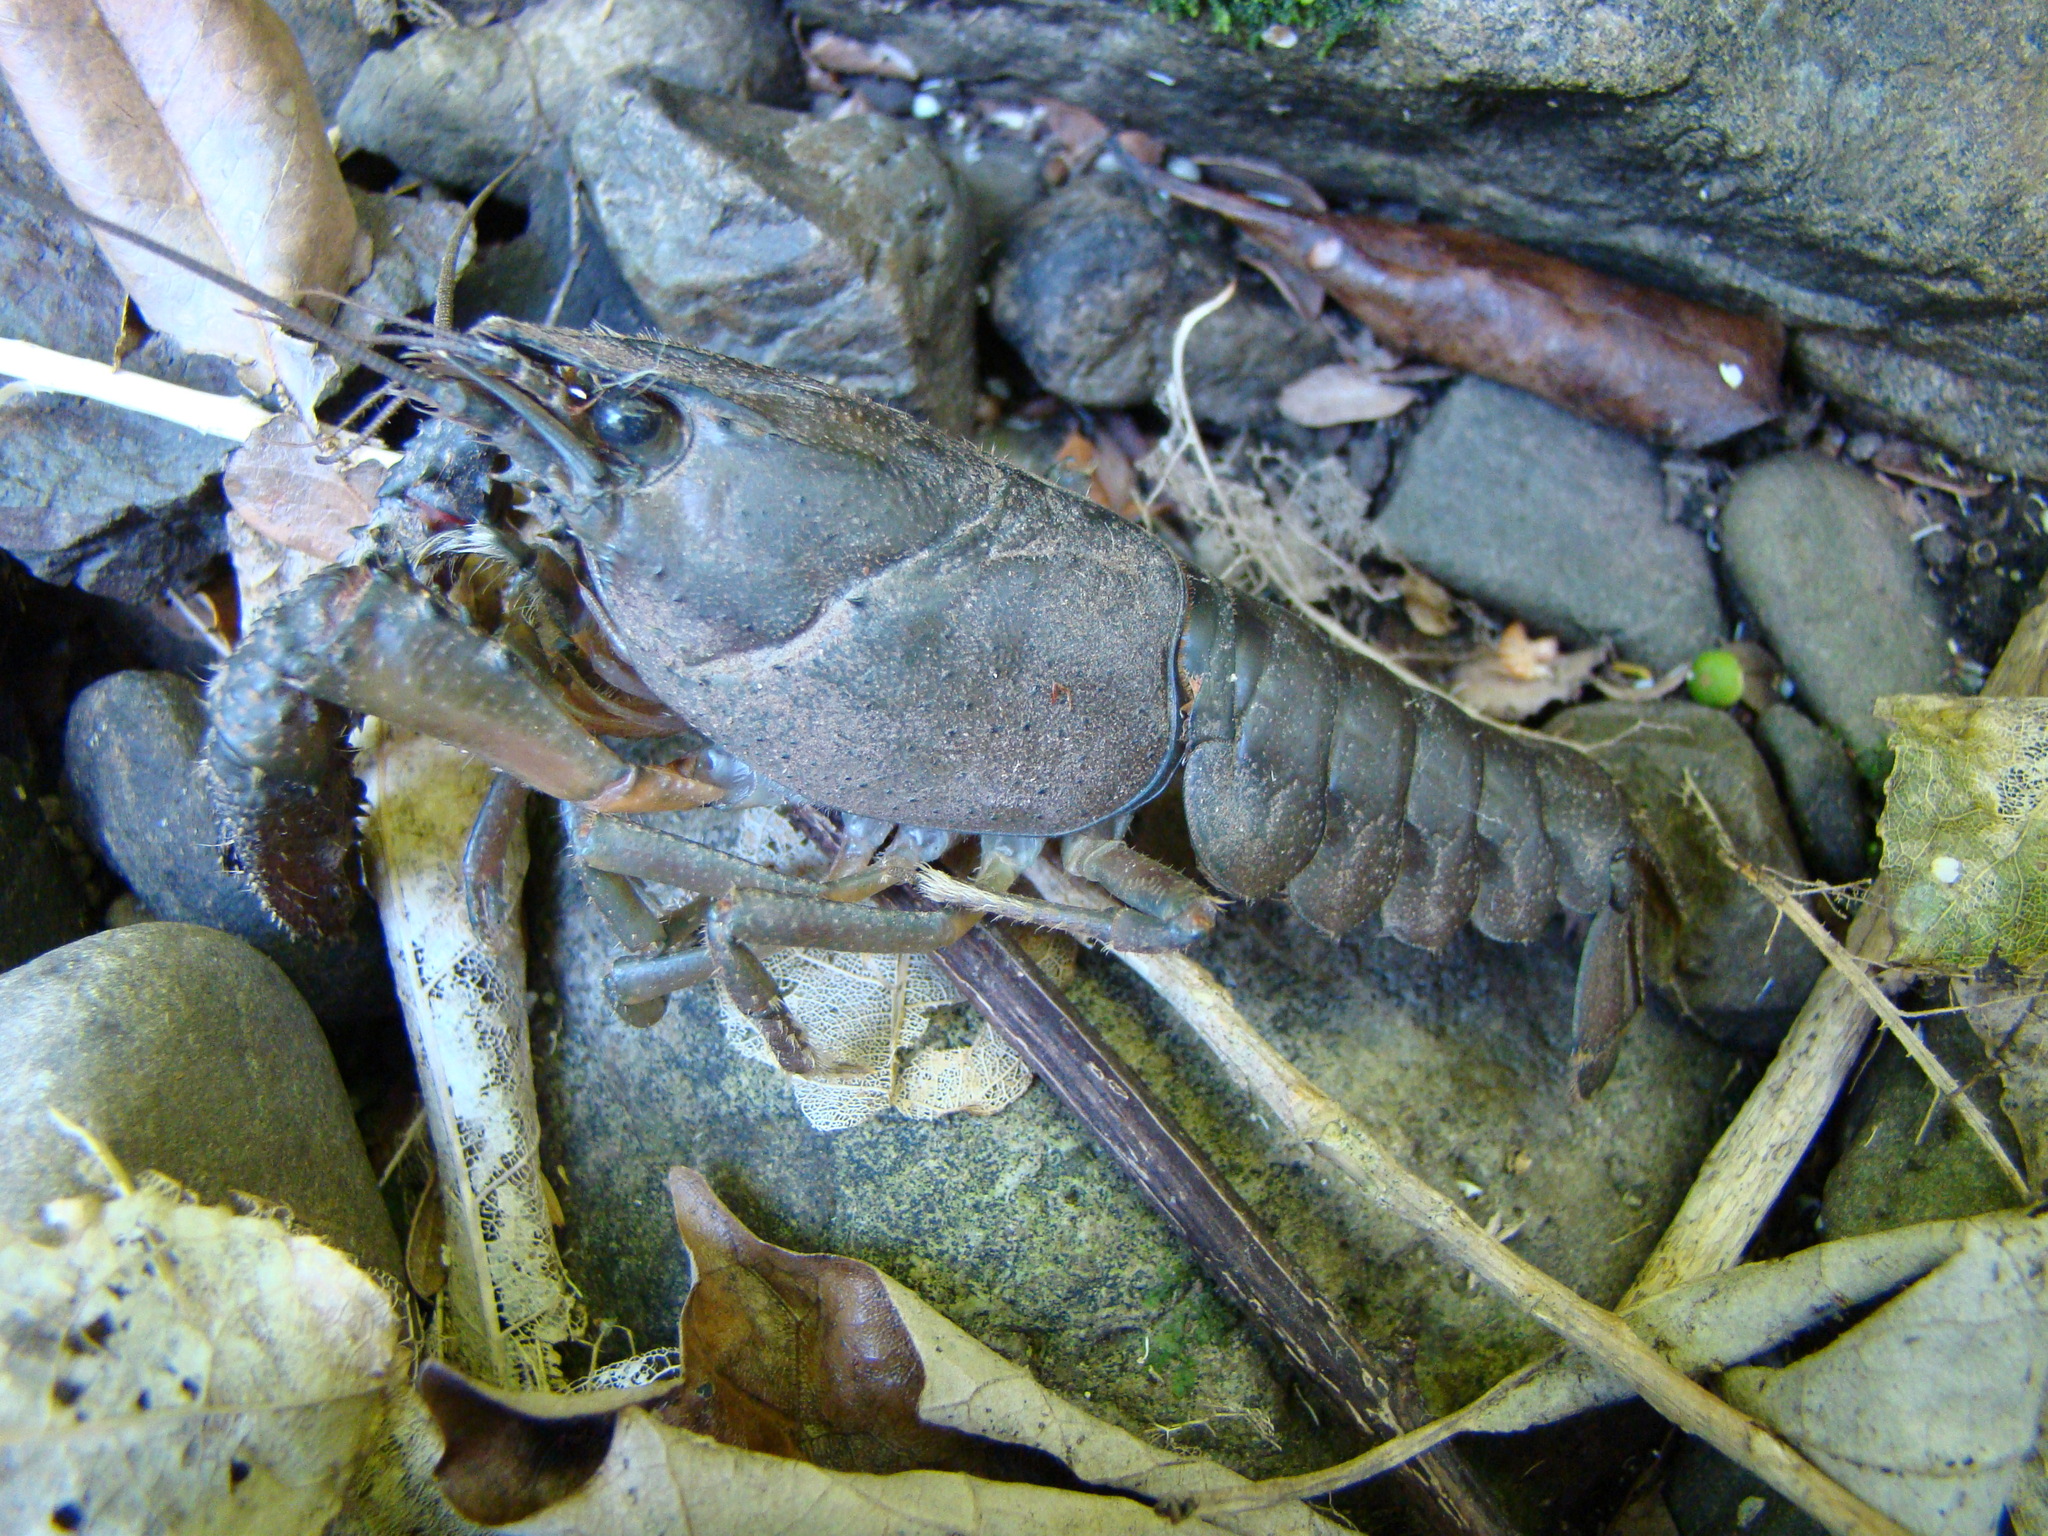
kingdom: Animalia
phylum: Arthropoda
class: Malacostraca
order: Decapoda
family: Parastacidae
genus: Paranephrops
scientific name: Paranephrops planifrons
